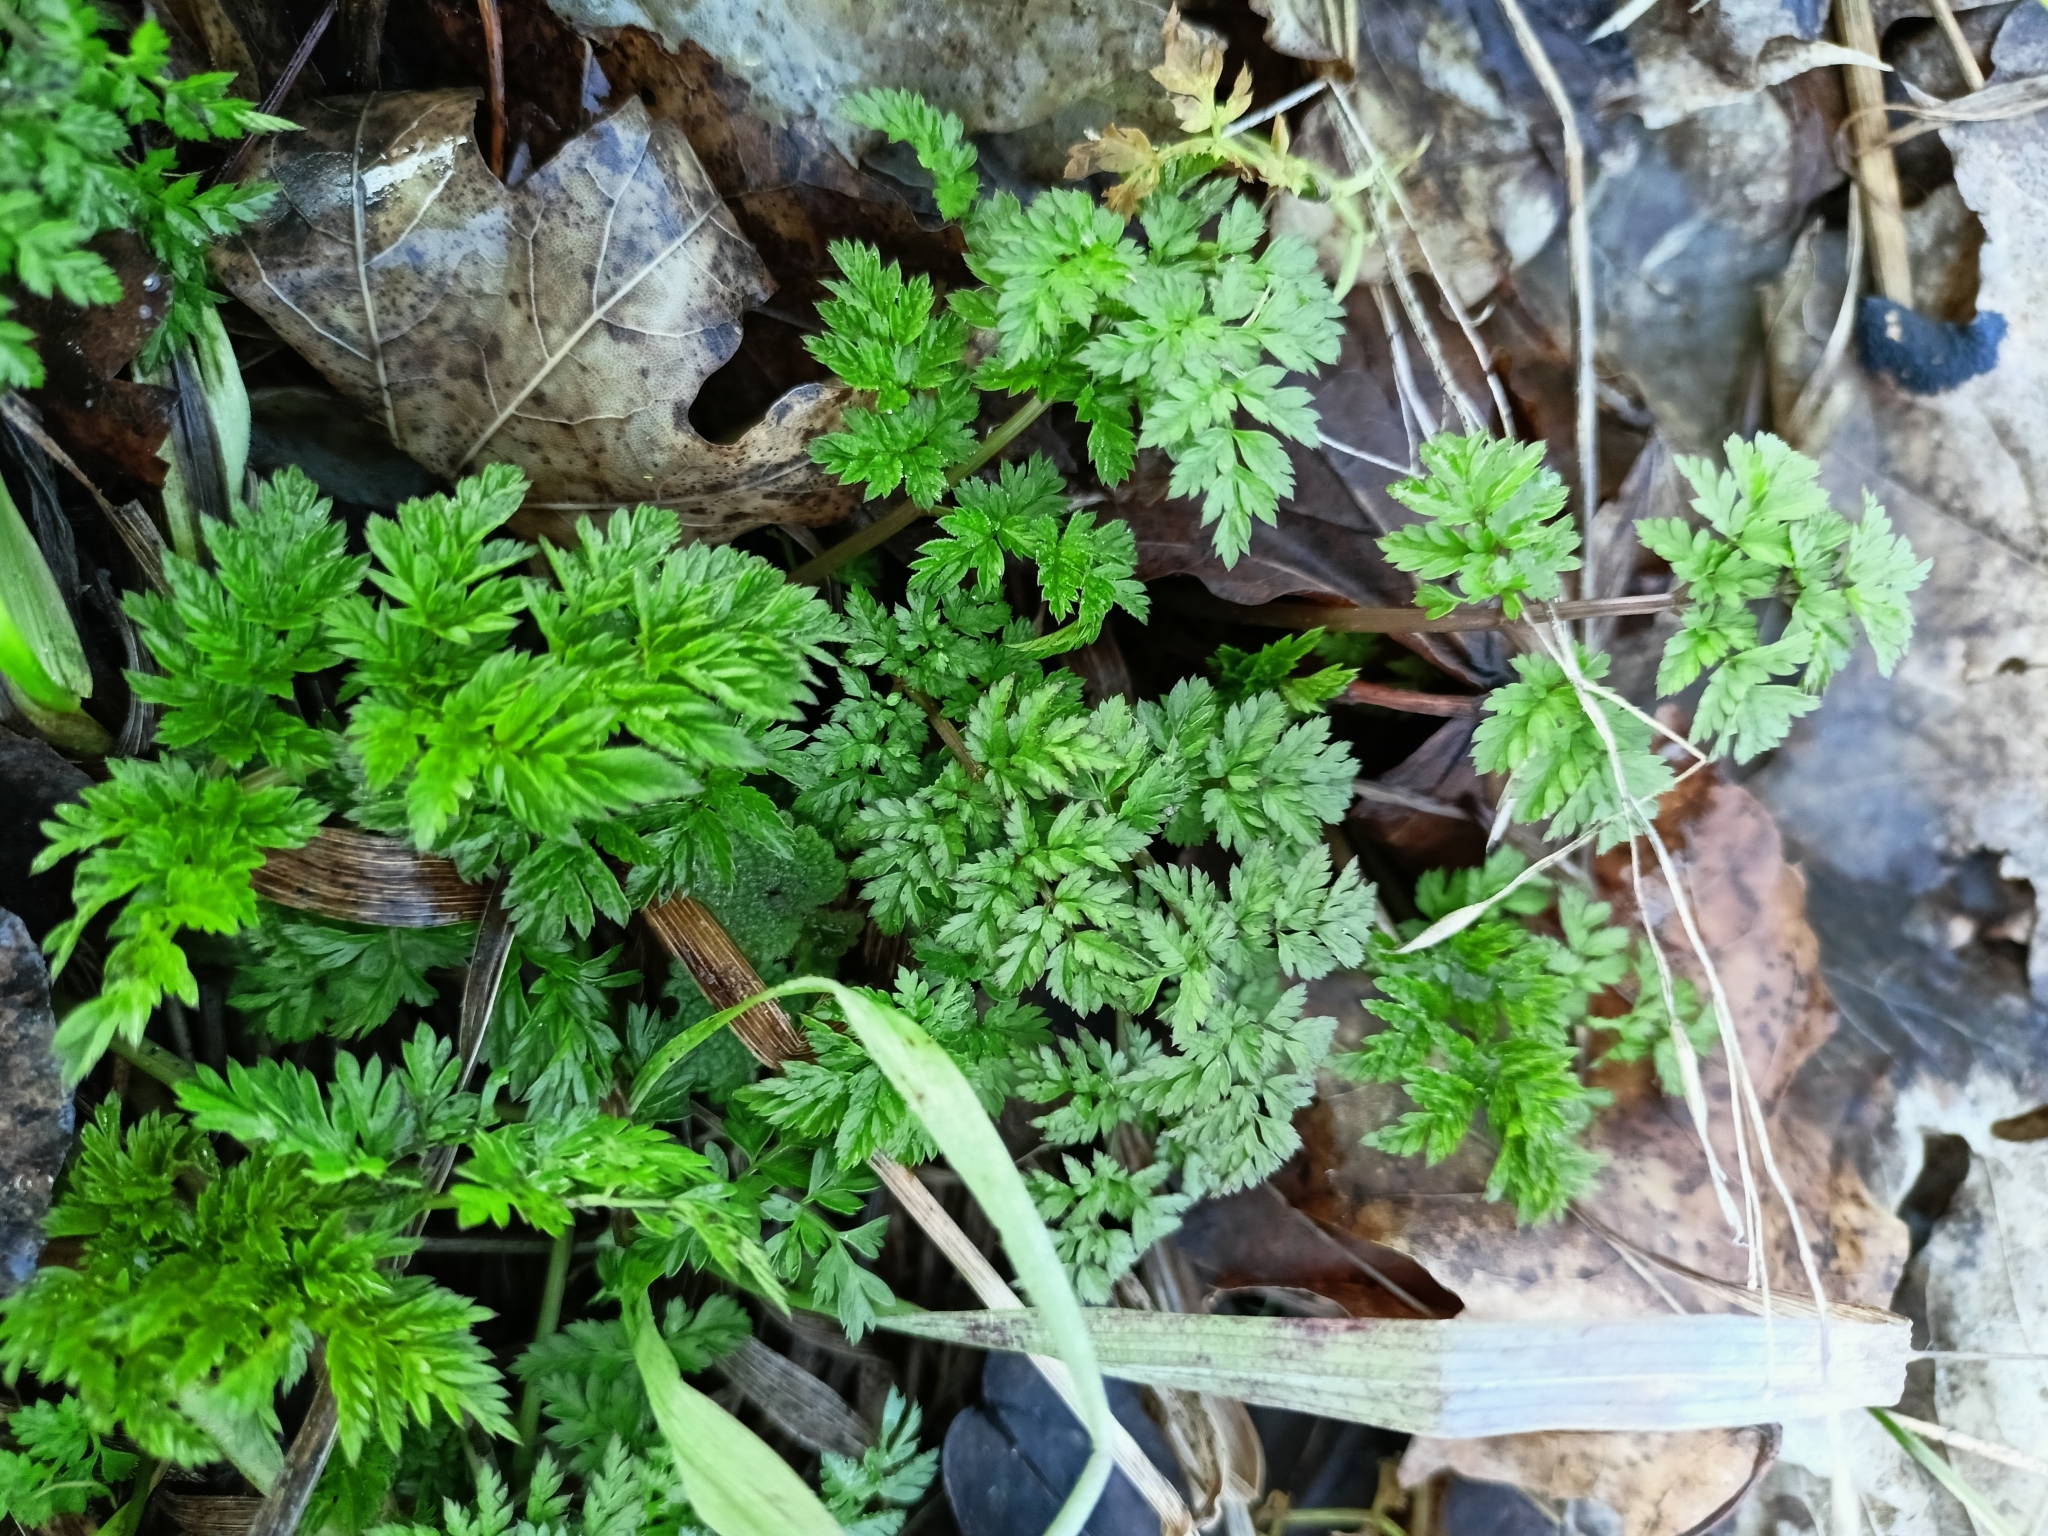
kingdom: Plantae
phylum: Tracheophyta
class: Magnoliopsida
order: Apiales
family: Apiaceae
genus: Anthriscus
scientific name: Anthriscus sylvestris
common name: Cow parsley
